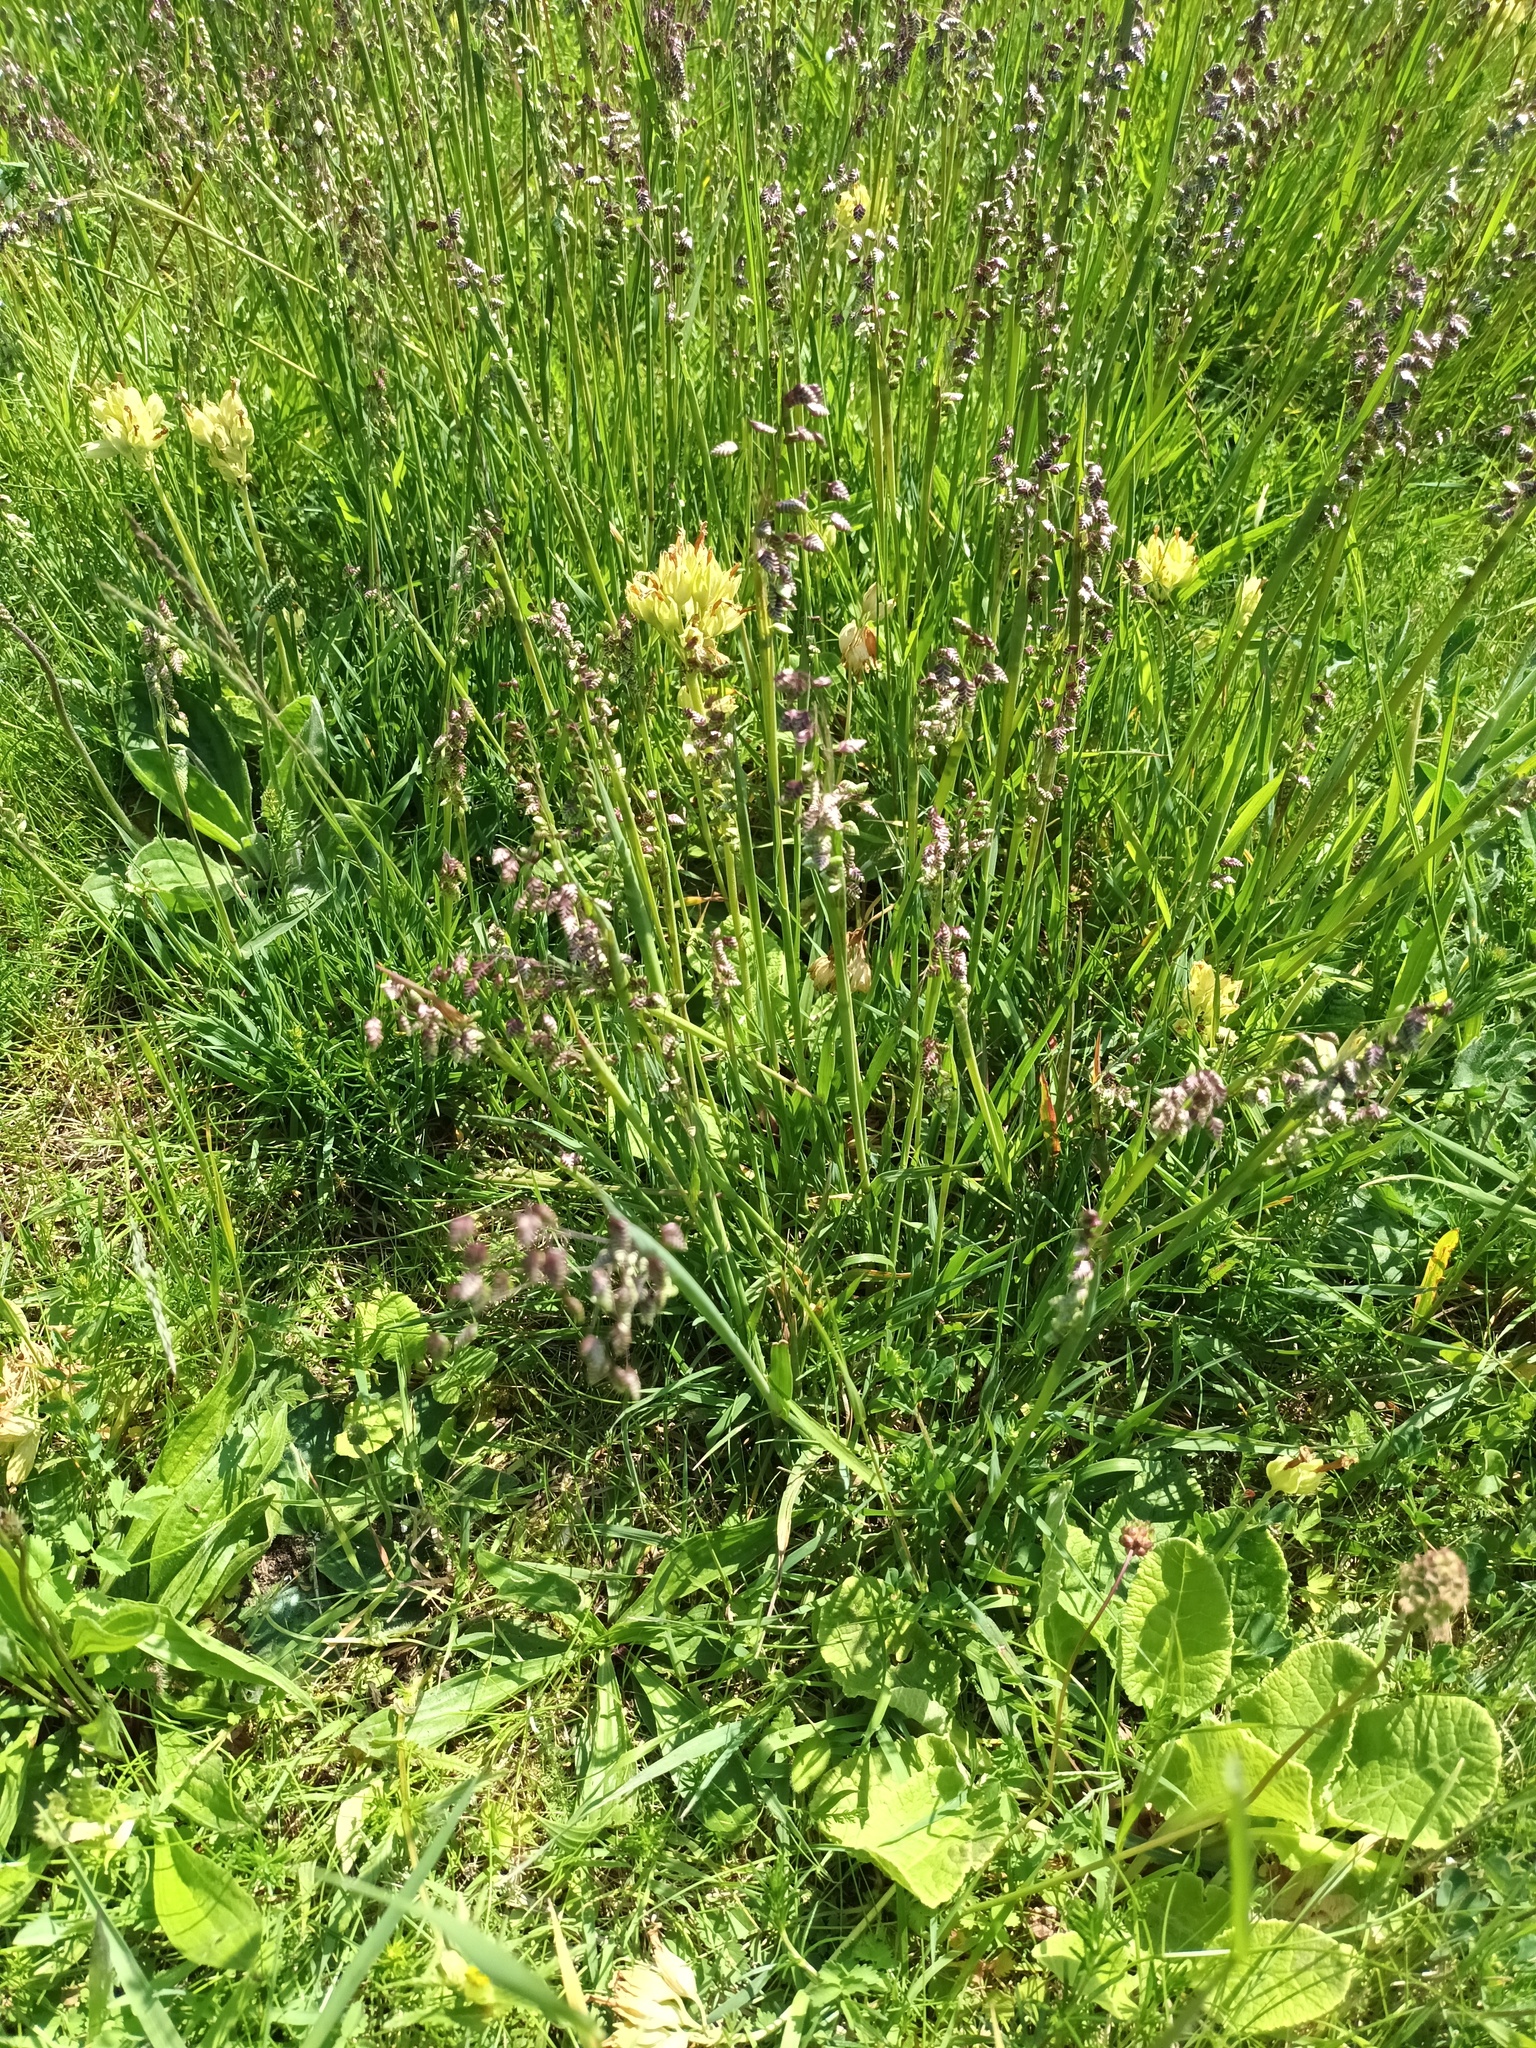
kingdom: Plantae
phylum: Tracheophyta
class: Liliopsida
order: Poales
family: Poaceae
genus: Briza
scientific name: Briza media
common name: Quaking grass
